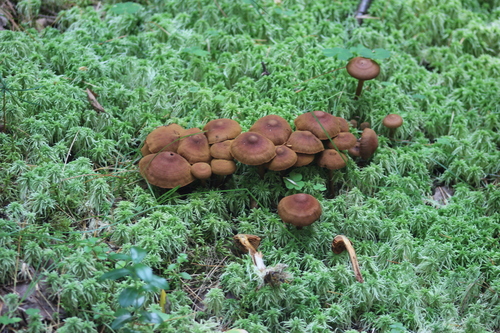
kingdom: Fungi
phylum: Basidiomycota
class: Agaricomycetes
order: Agaricales
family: Cortinariaceae
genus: Cortinarius
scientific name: Cortinarius
